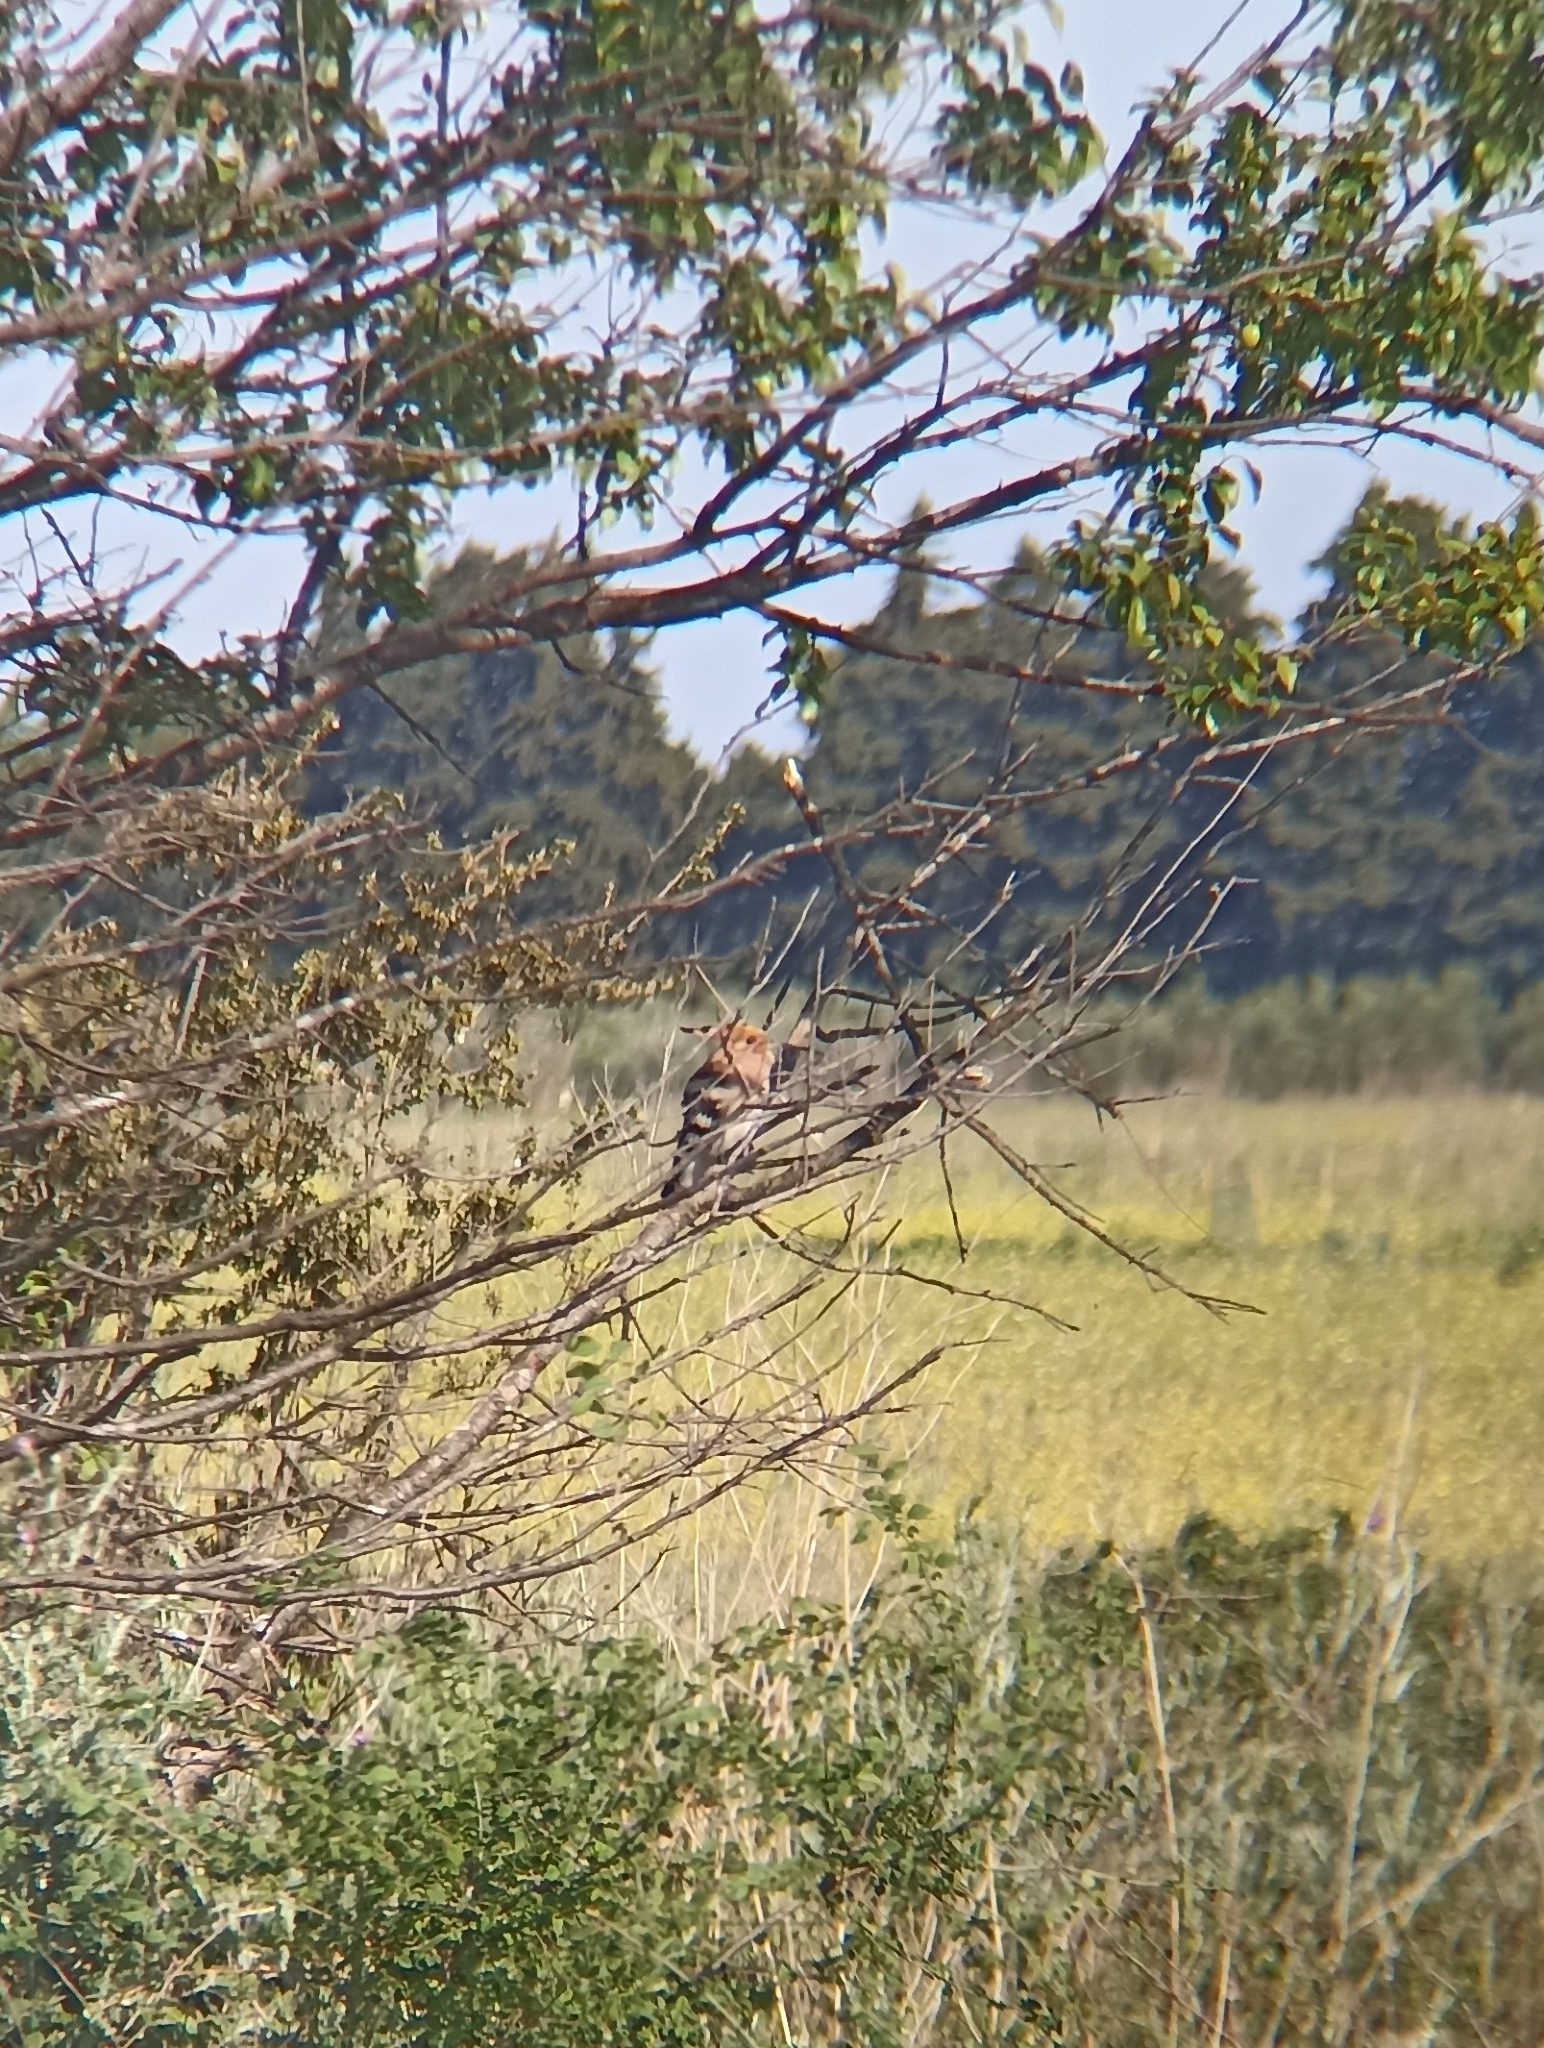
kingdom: Animalia
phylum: Chordata
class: Aves
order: Bucerotiformes
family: Upupidae
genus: Upupa
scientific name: Upupa epops
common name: Eurasian hoopoe
